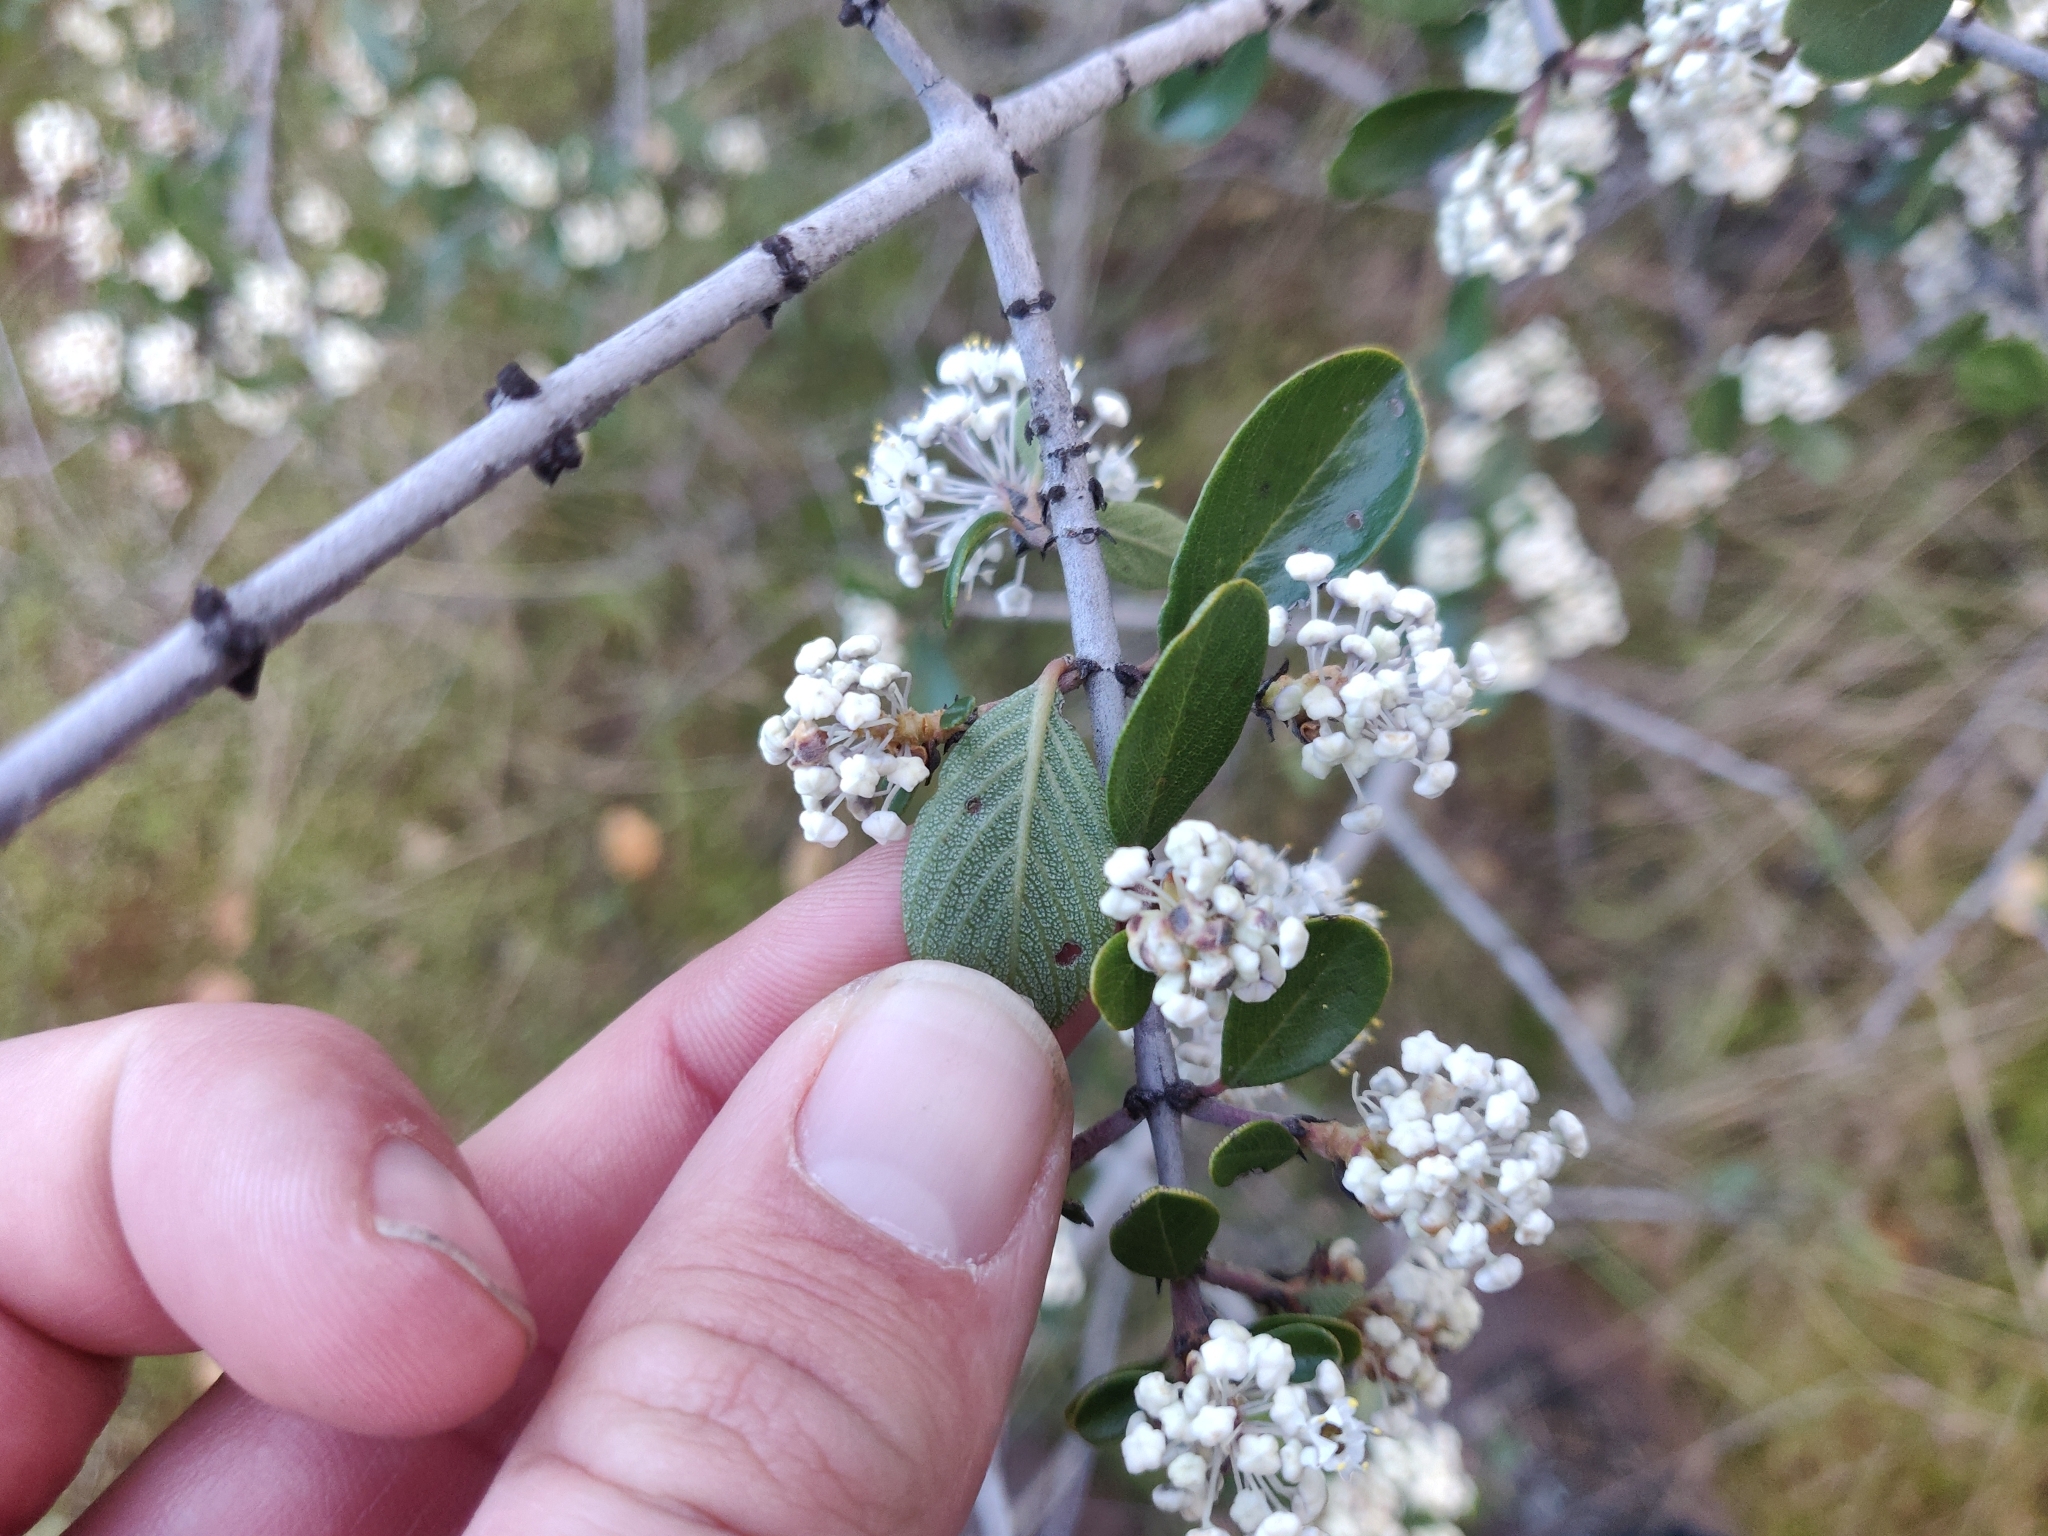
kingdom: Plantae
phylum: Tracheophyta
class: Magnoliopsida
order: Rosales
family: Rhamnaceae
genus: Ceanothus
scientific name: Ceanothus cuneatus
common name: Cuneate ceanothus
